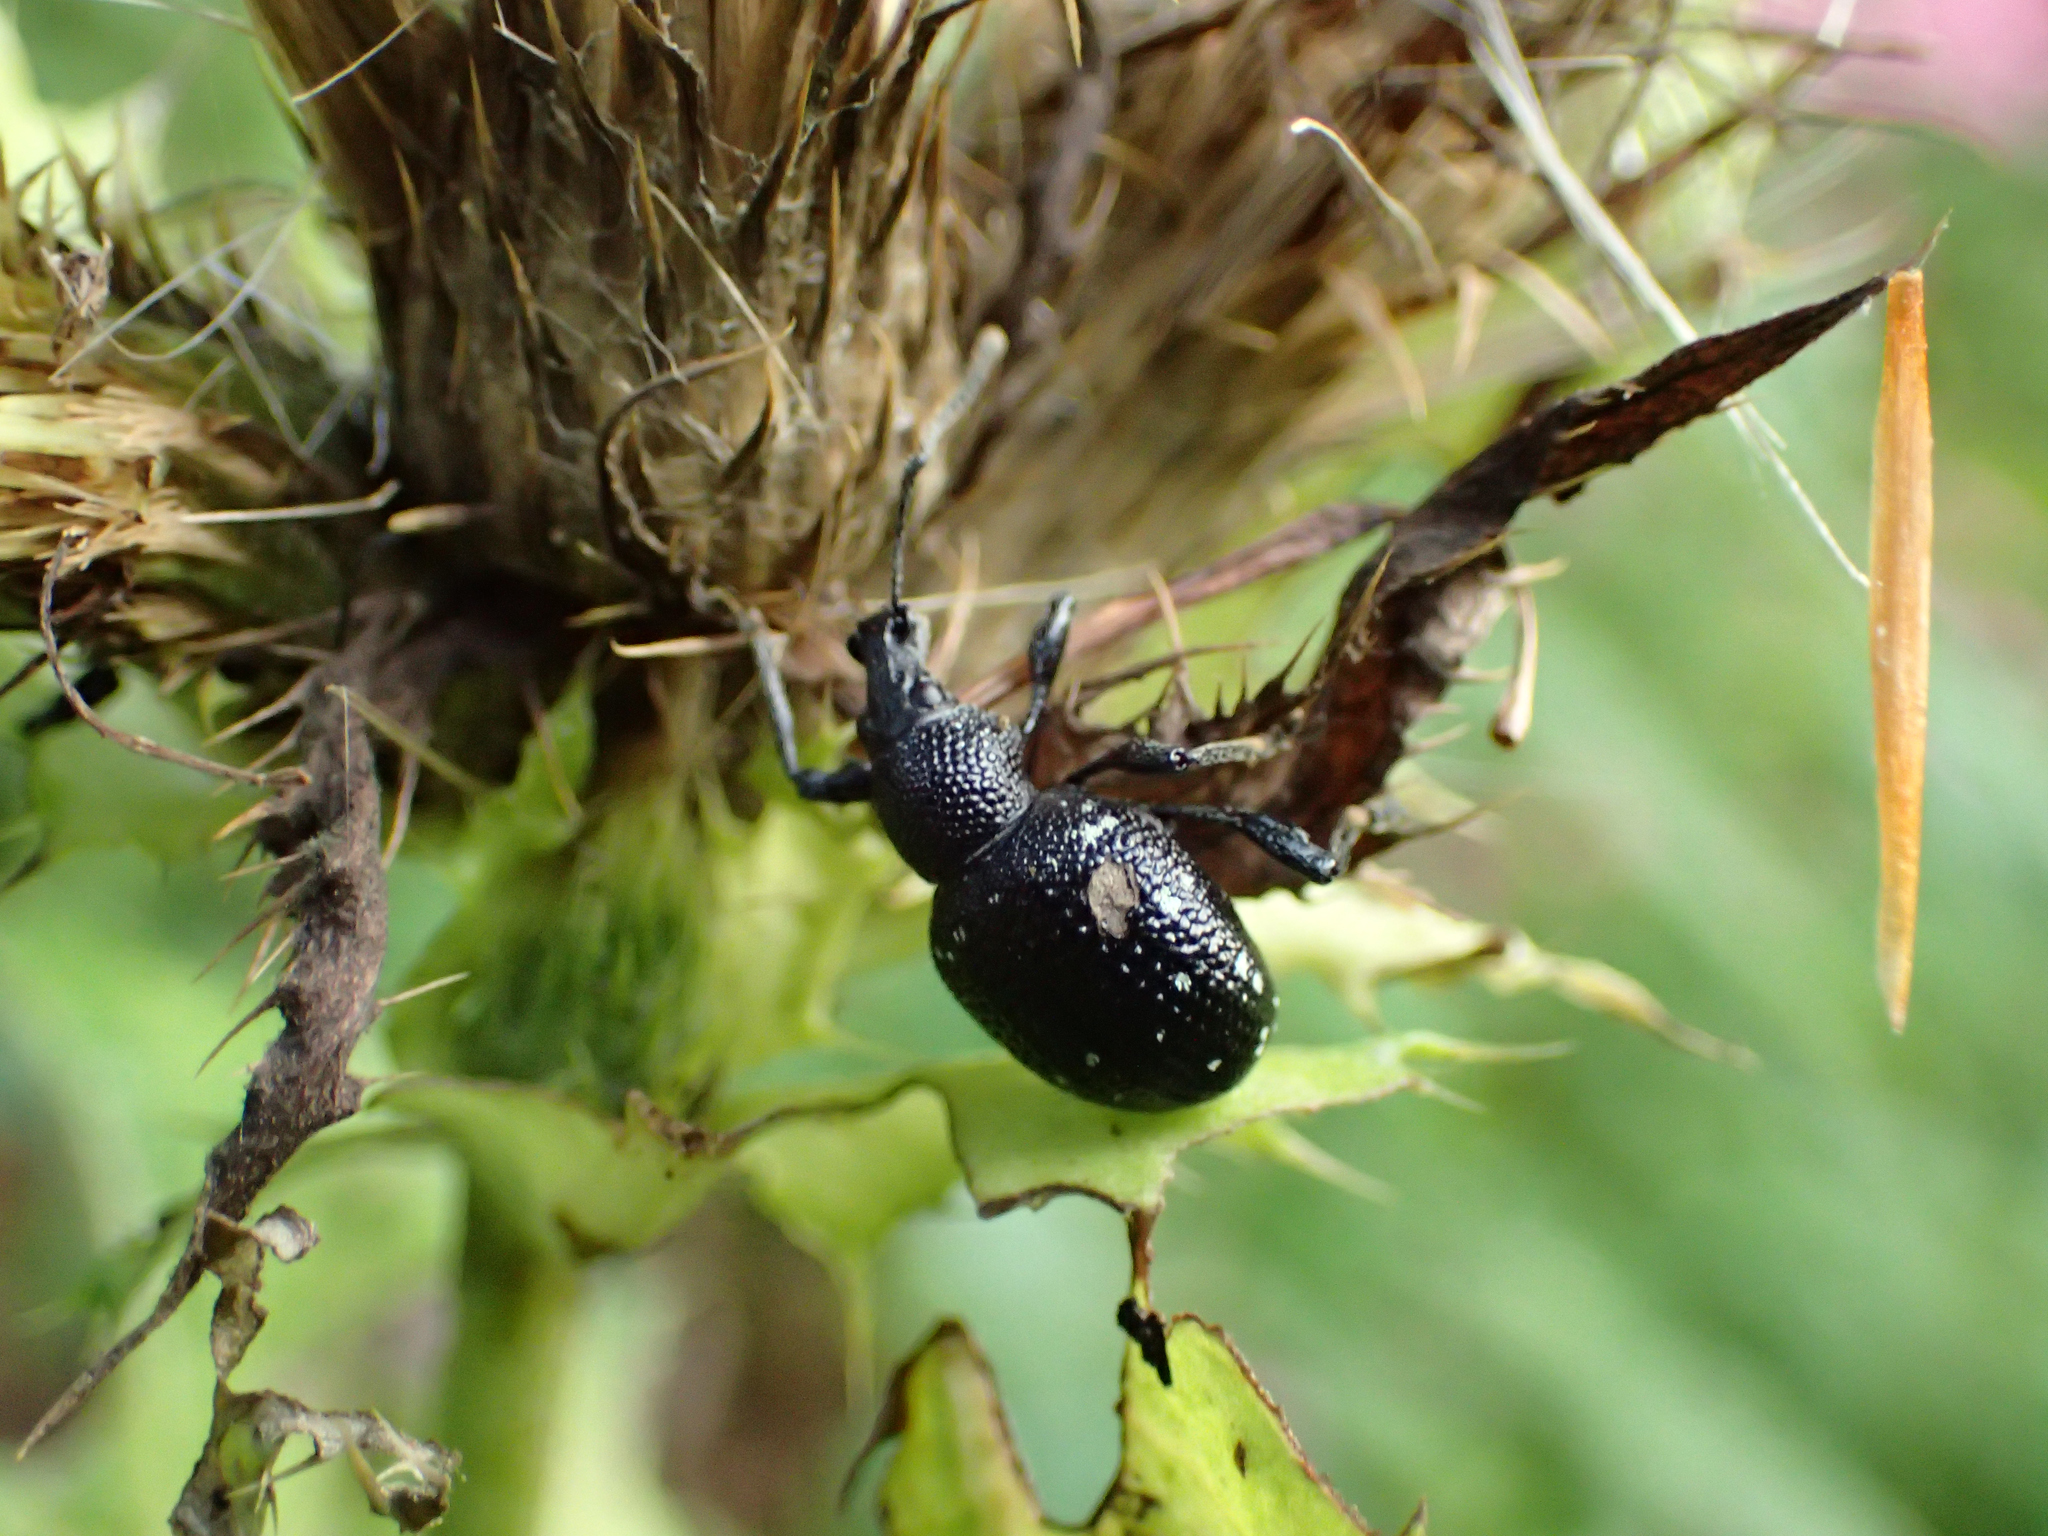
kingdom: Animalia
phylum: Arthropoda
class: Insecta
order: Coleoptera
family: Curculionidae
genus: Otiorhynchus
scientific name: Otiorhynchus gemmatus
